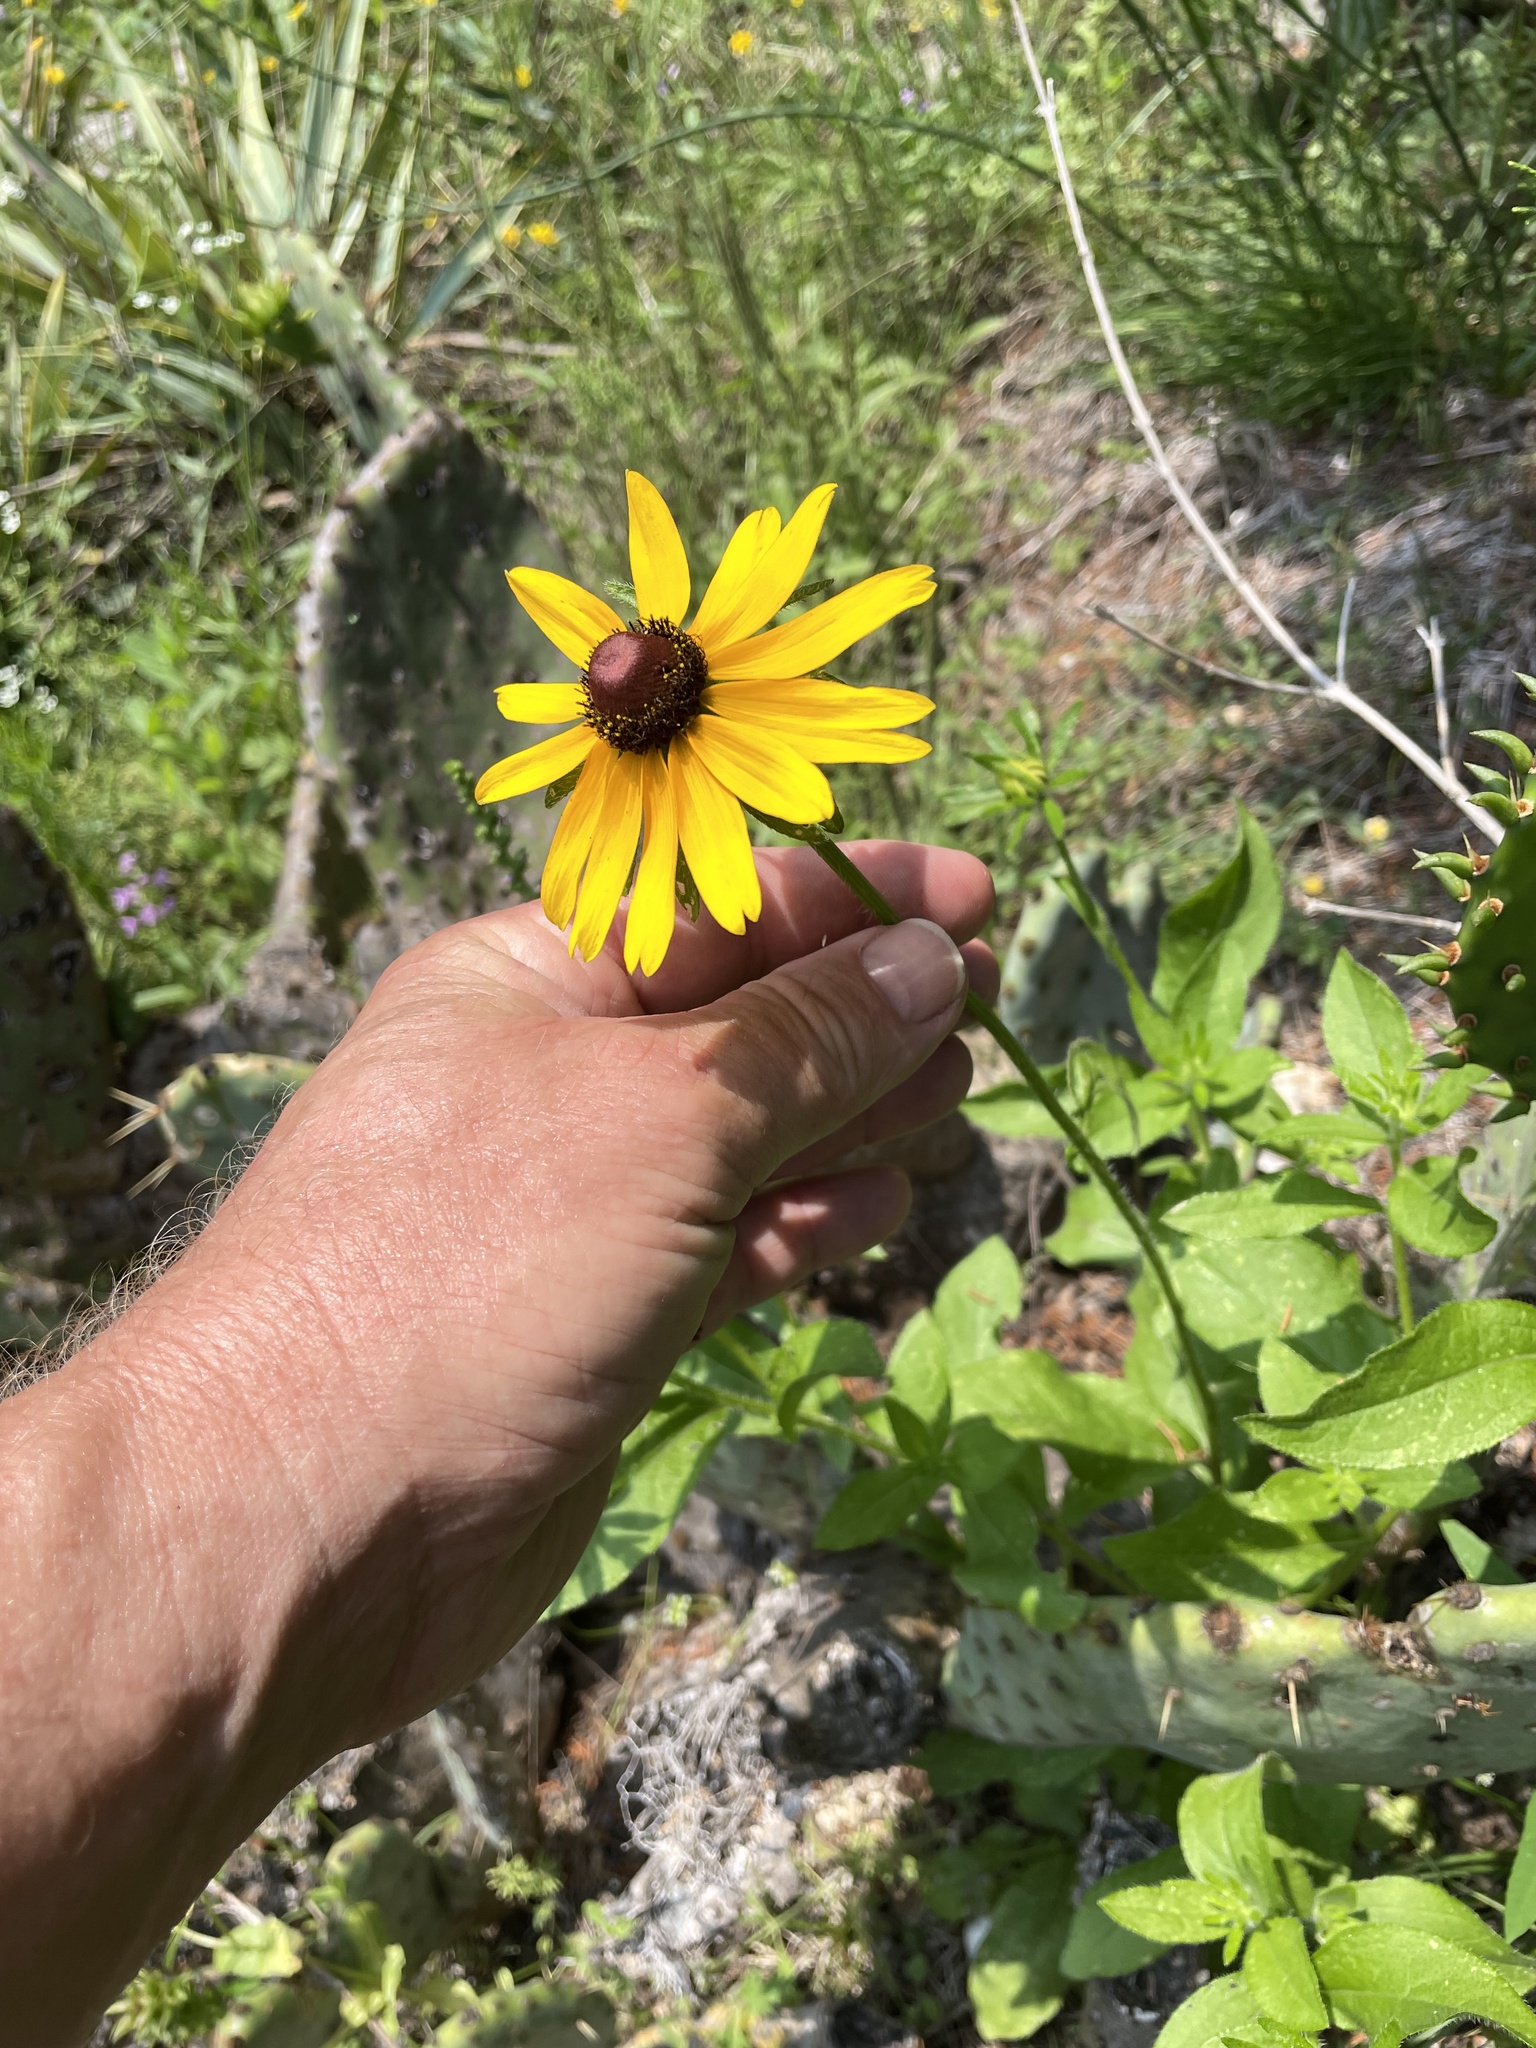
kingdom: Plantae
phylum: Tracheophyta
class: Magnoliopsida
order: Asterales
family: Asteraceae
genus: Rudbeckia
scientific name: Rudbeckia hirta
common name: Black-eyed-susan
